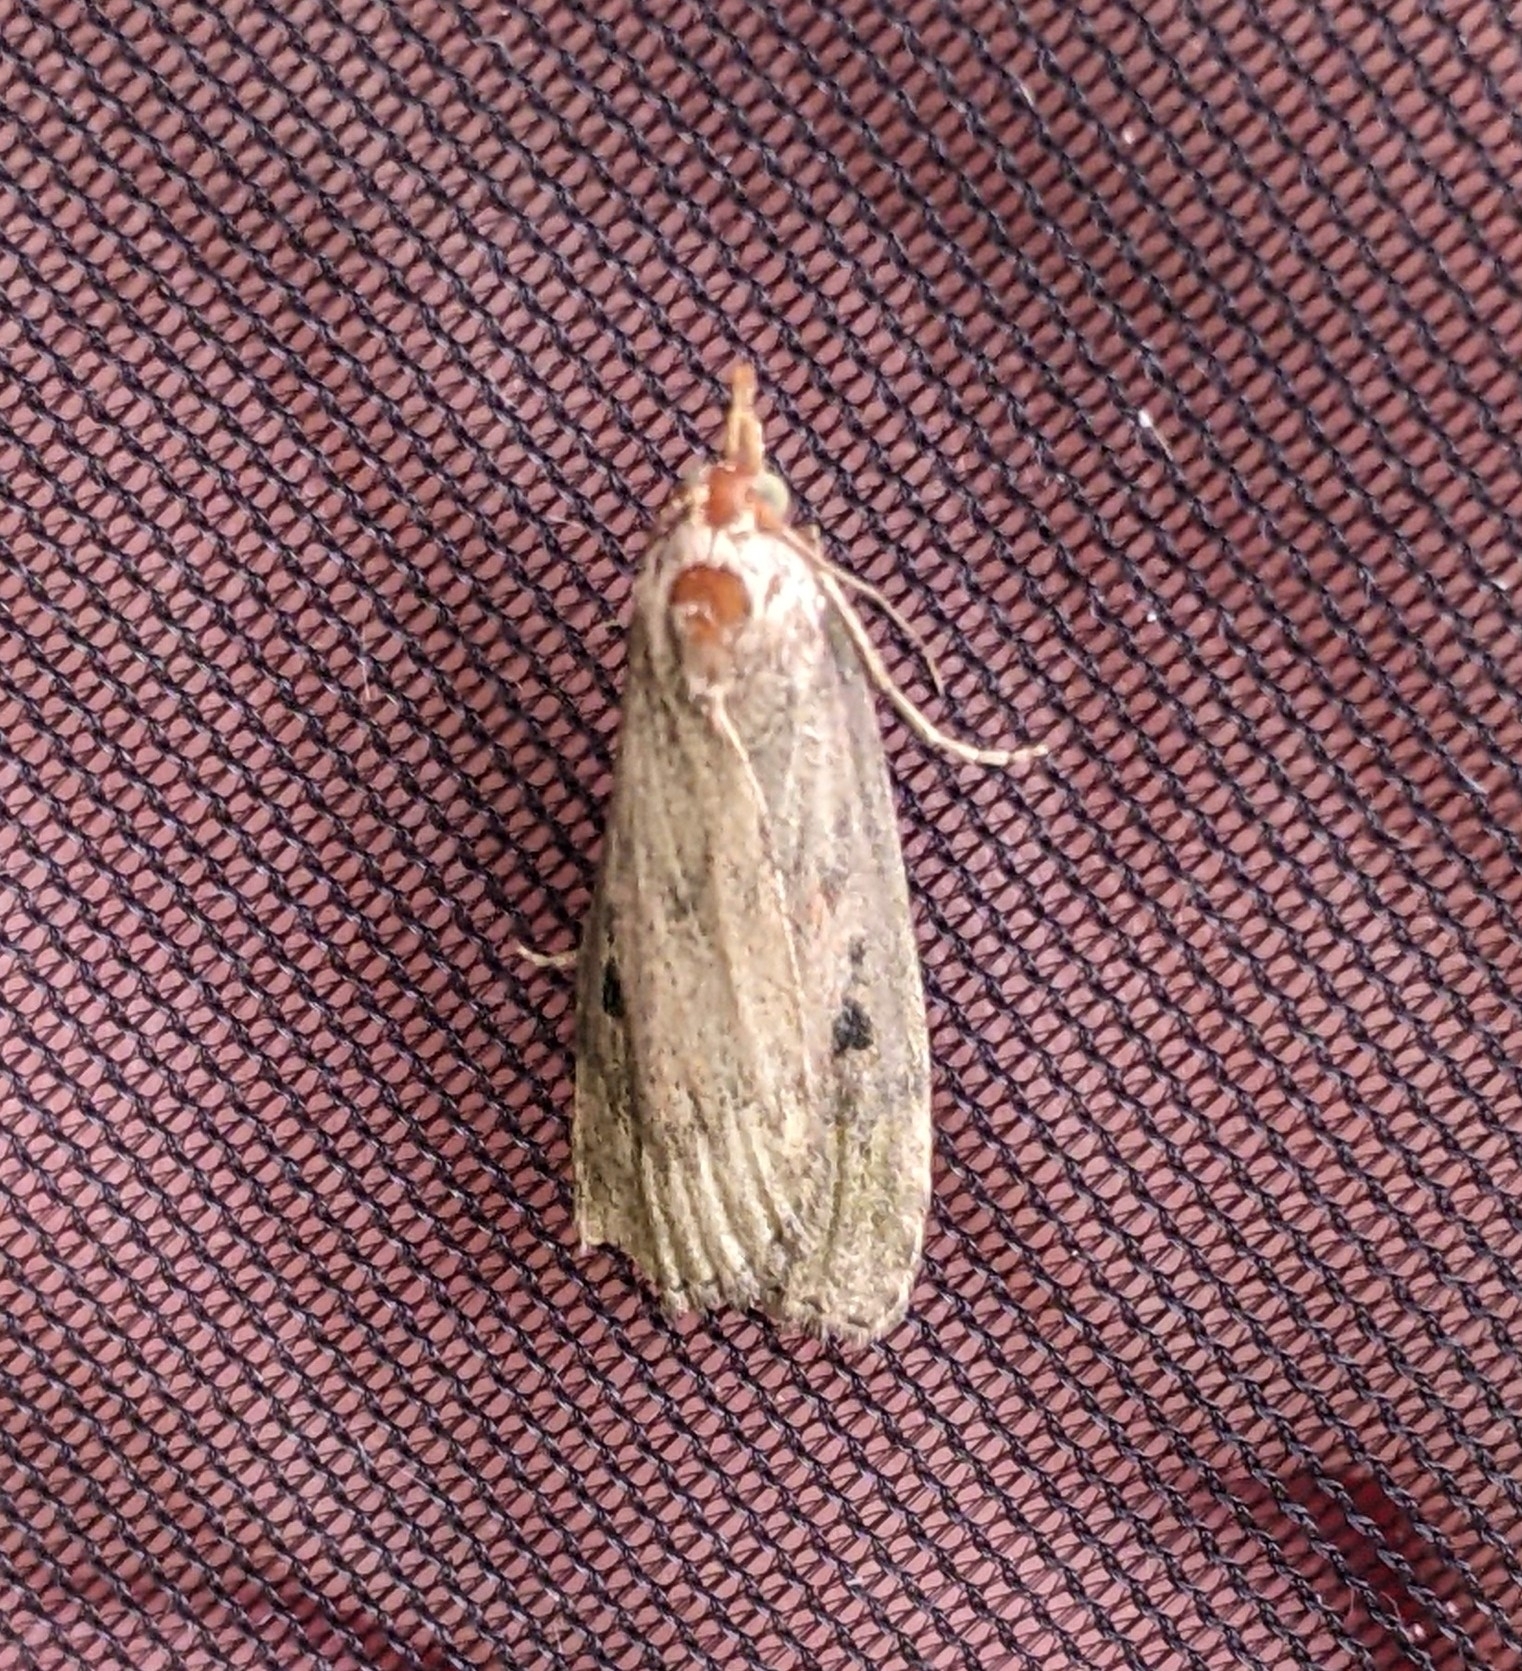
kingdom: Animalia
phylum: Arthropoda
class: Insecta
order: Lepidoptera
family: Pyralidae
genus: Aphomia
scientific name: Aphomia sociella
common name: Bee moth
